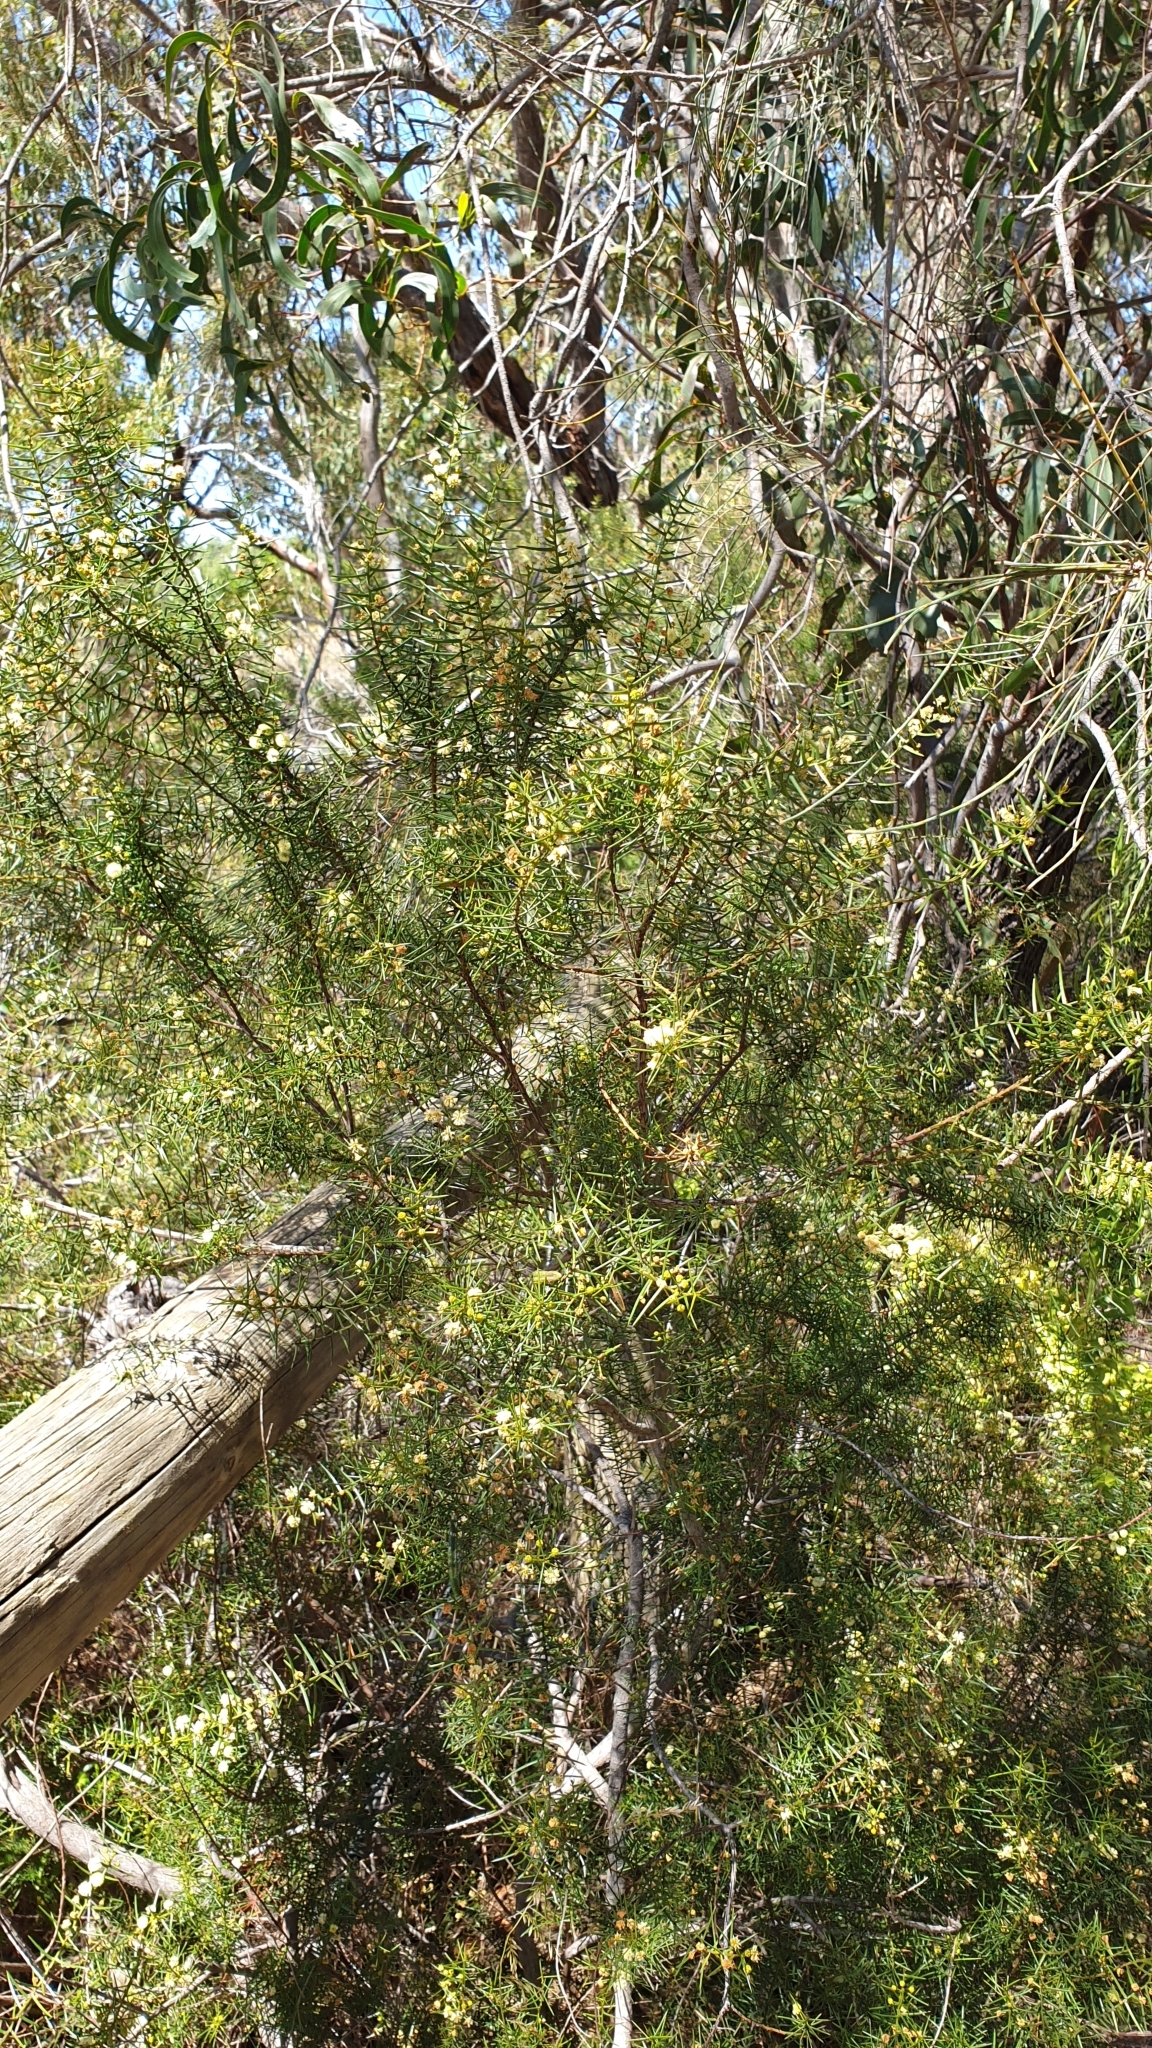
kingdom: Plantae
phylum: Tracheophyta
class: Magnoliopsida
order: Fabales
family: Fabaceae
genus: Acacia
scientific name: Acacia rupicola
